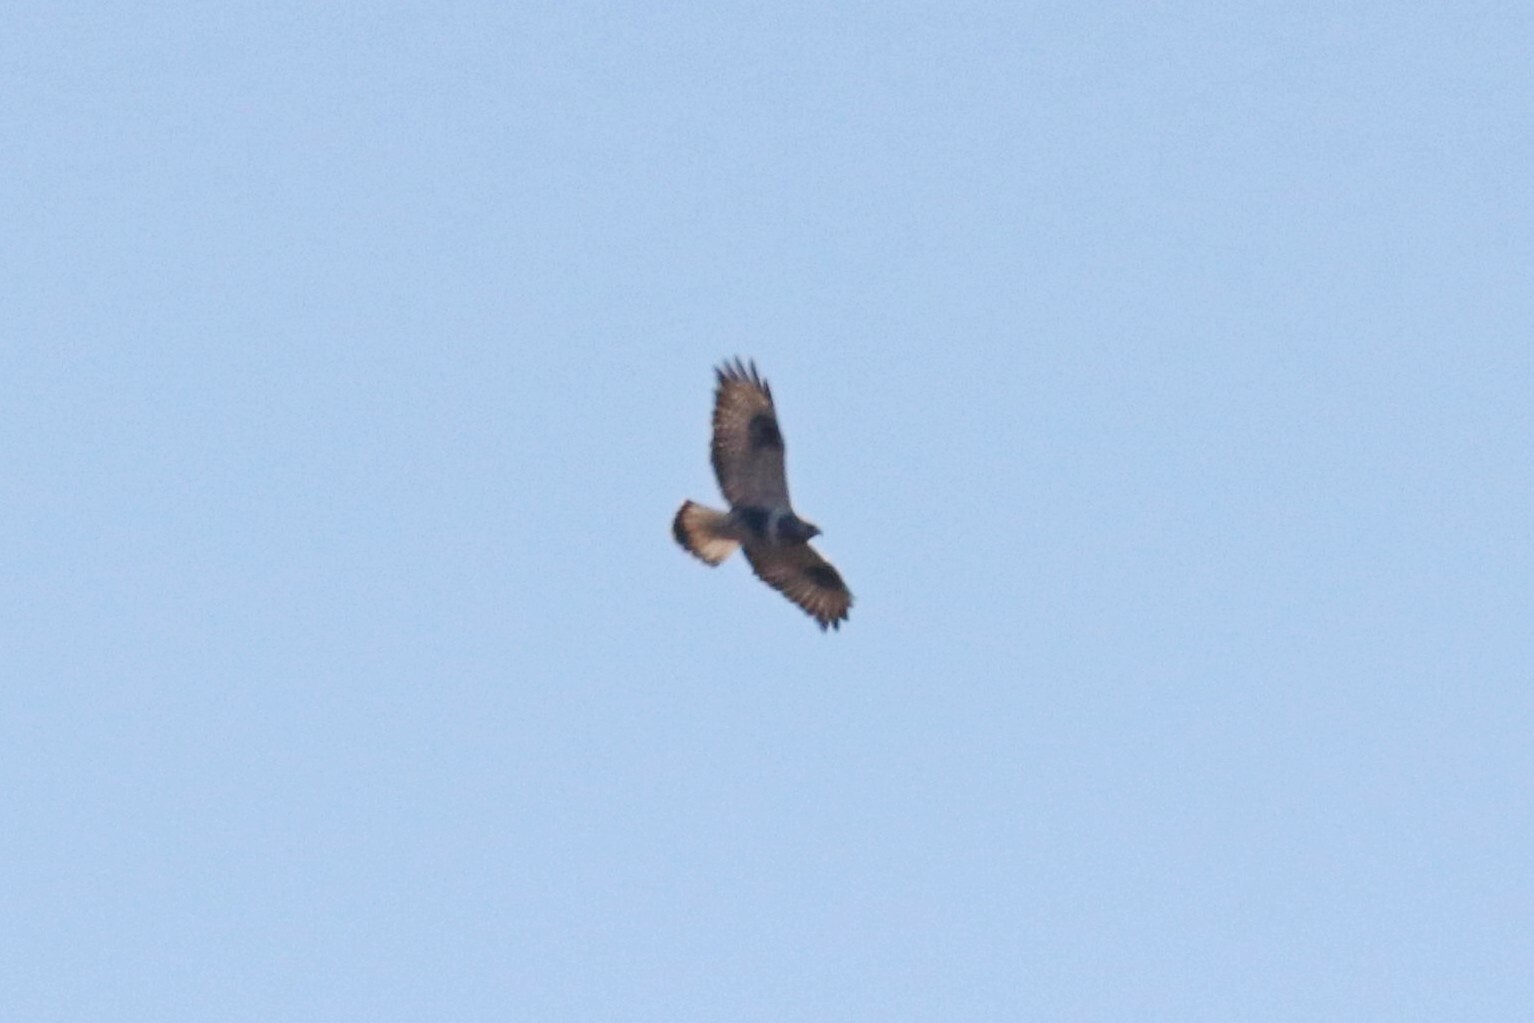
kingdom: Animalia
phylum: Chordata
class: Aves
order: Accipitriformes
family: Accipitridae
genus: Buteo
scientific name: Buteo lagopus
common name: Rough-legged buzzard
